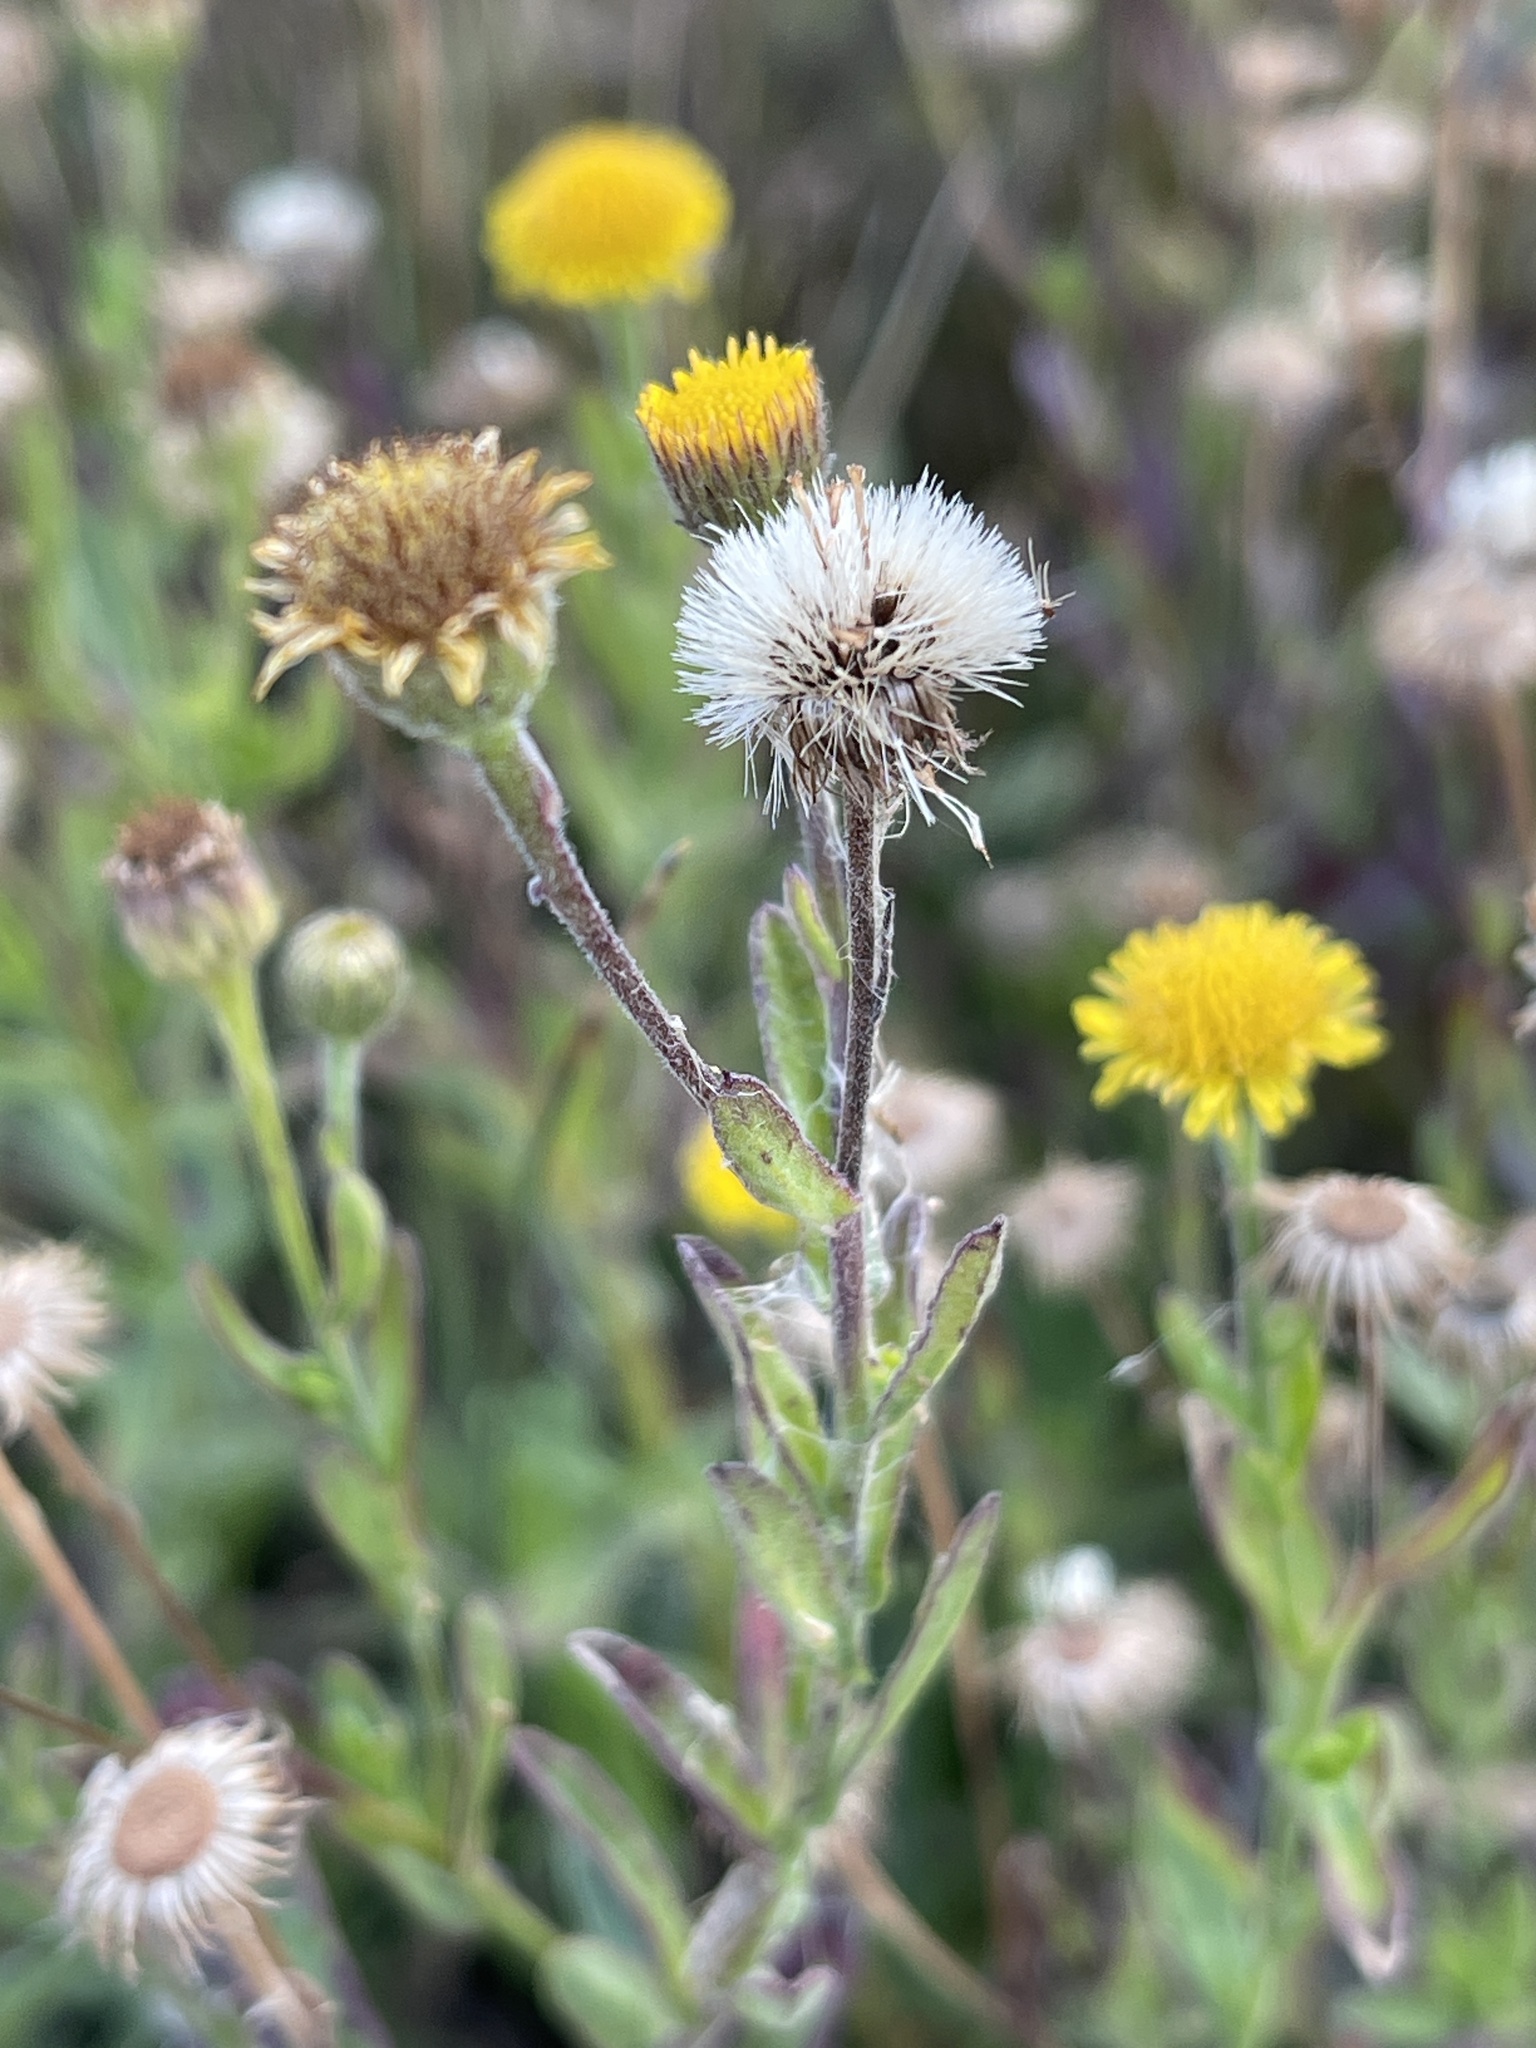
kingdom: Plantae
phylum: Tracheophyta
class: Magnoliopsida
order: Asterales
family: Asteraceae
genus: Pulicaria
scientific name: Pulicaria paludosa
